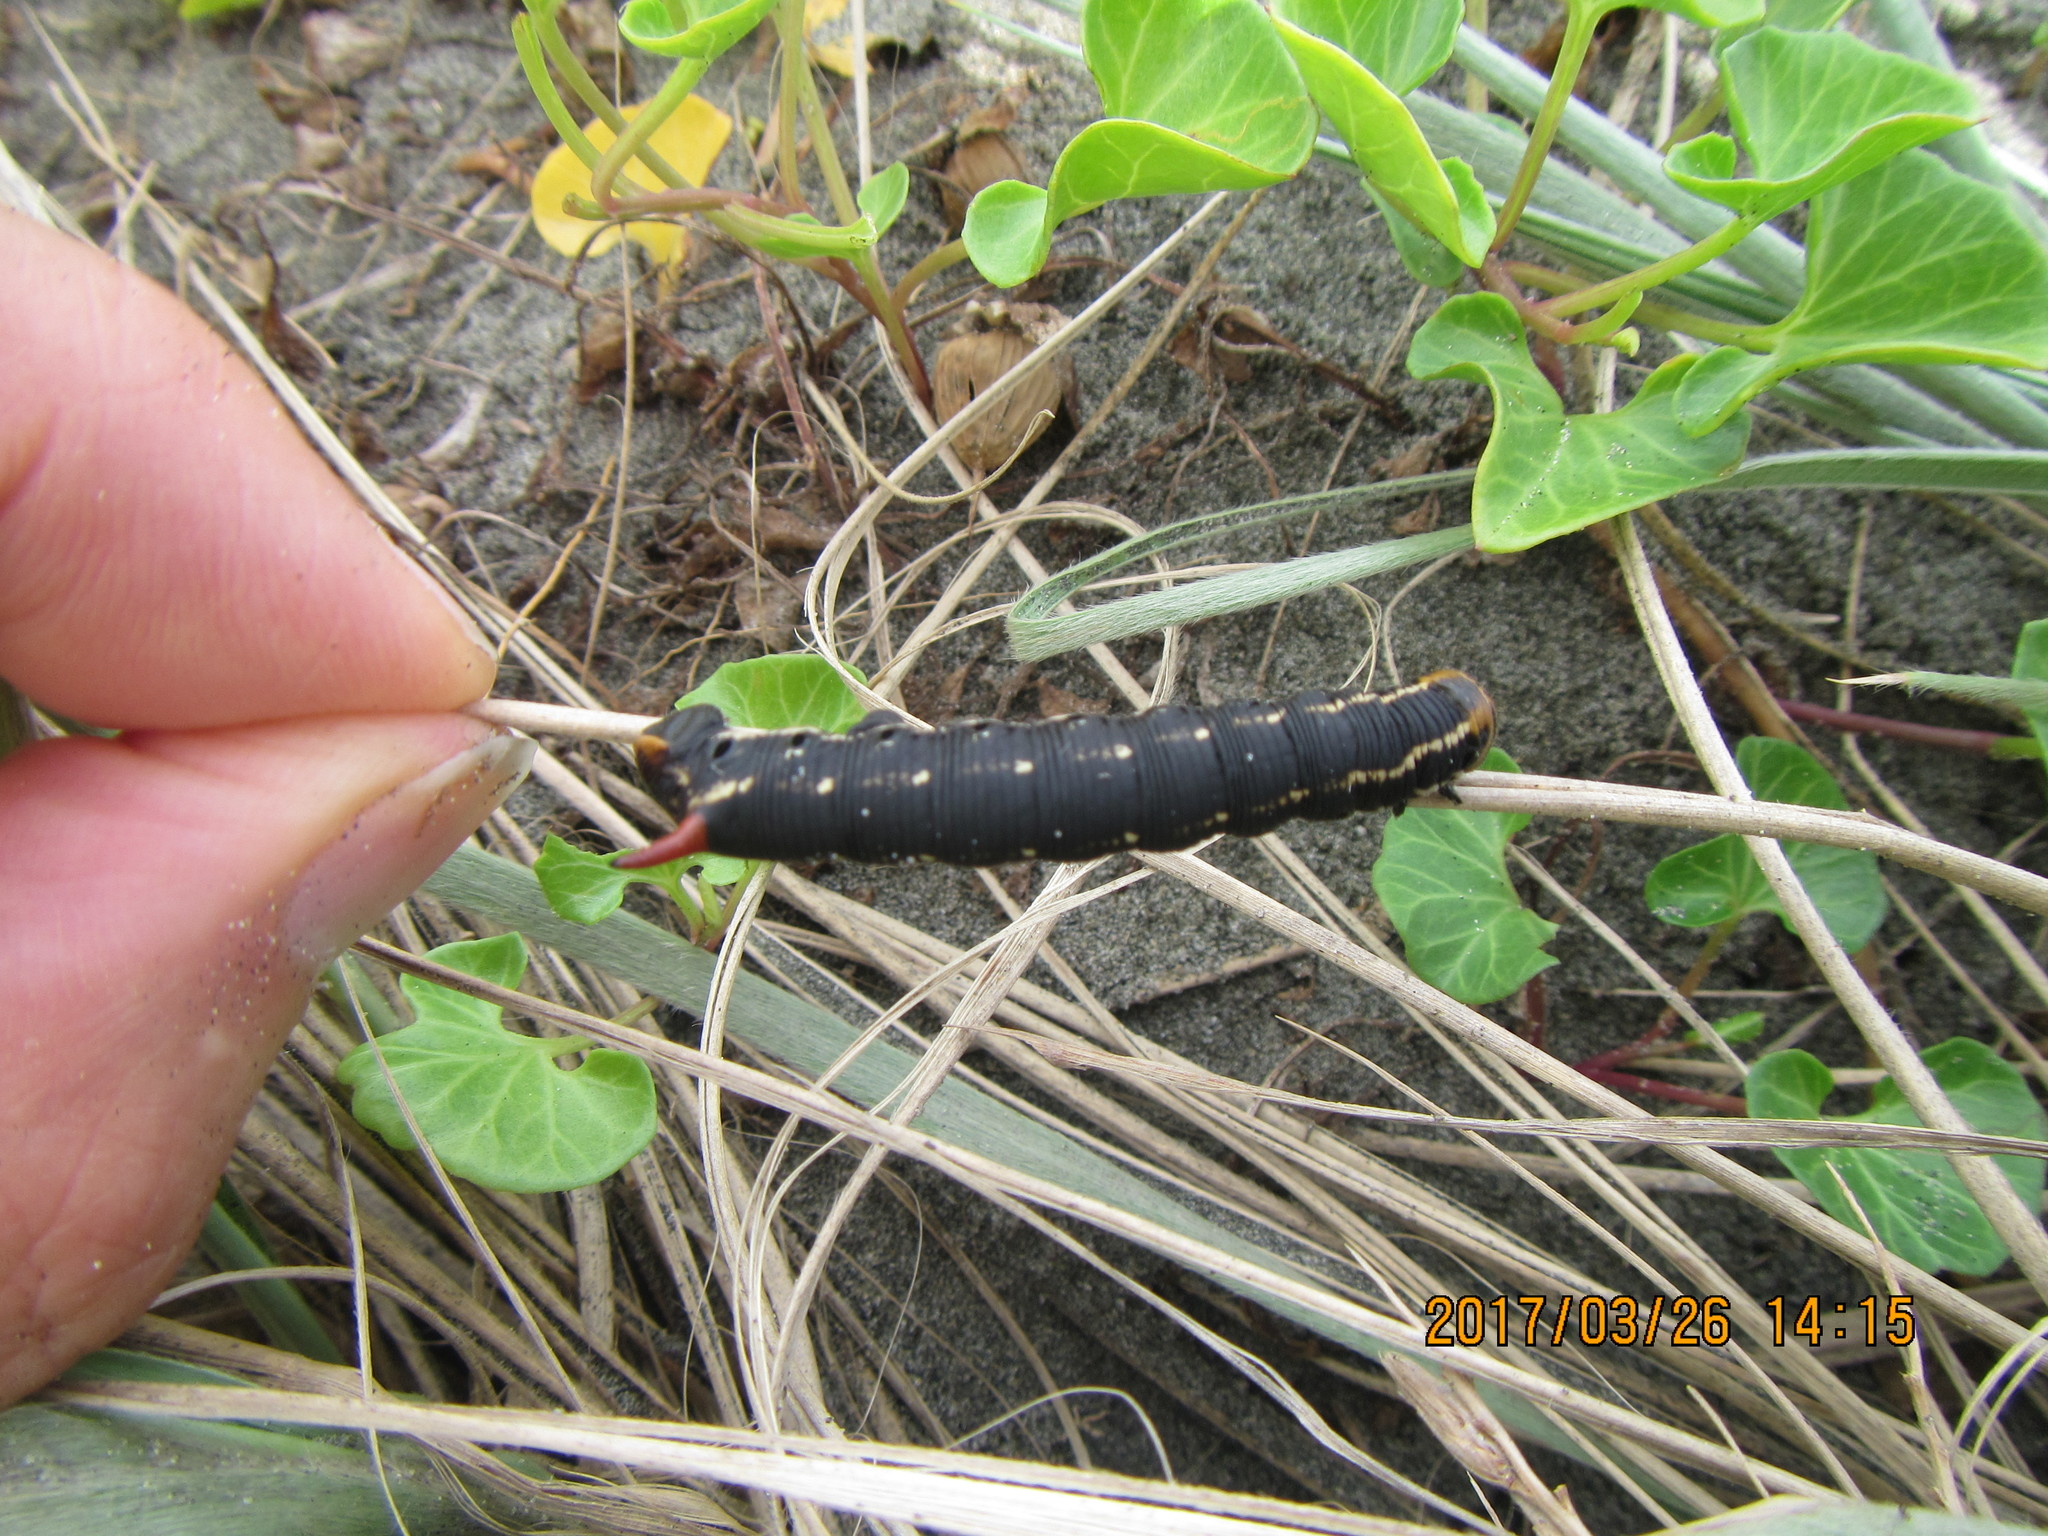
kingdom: Animalia
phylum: Arthropoda
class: Insecta
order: Lepidoptera
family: Sphingidae
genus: Agrius
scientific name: Agrius convolvuli
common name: Convolvulus hawkmoth
